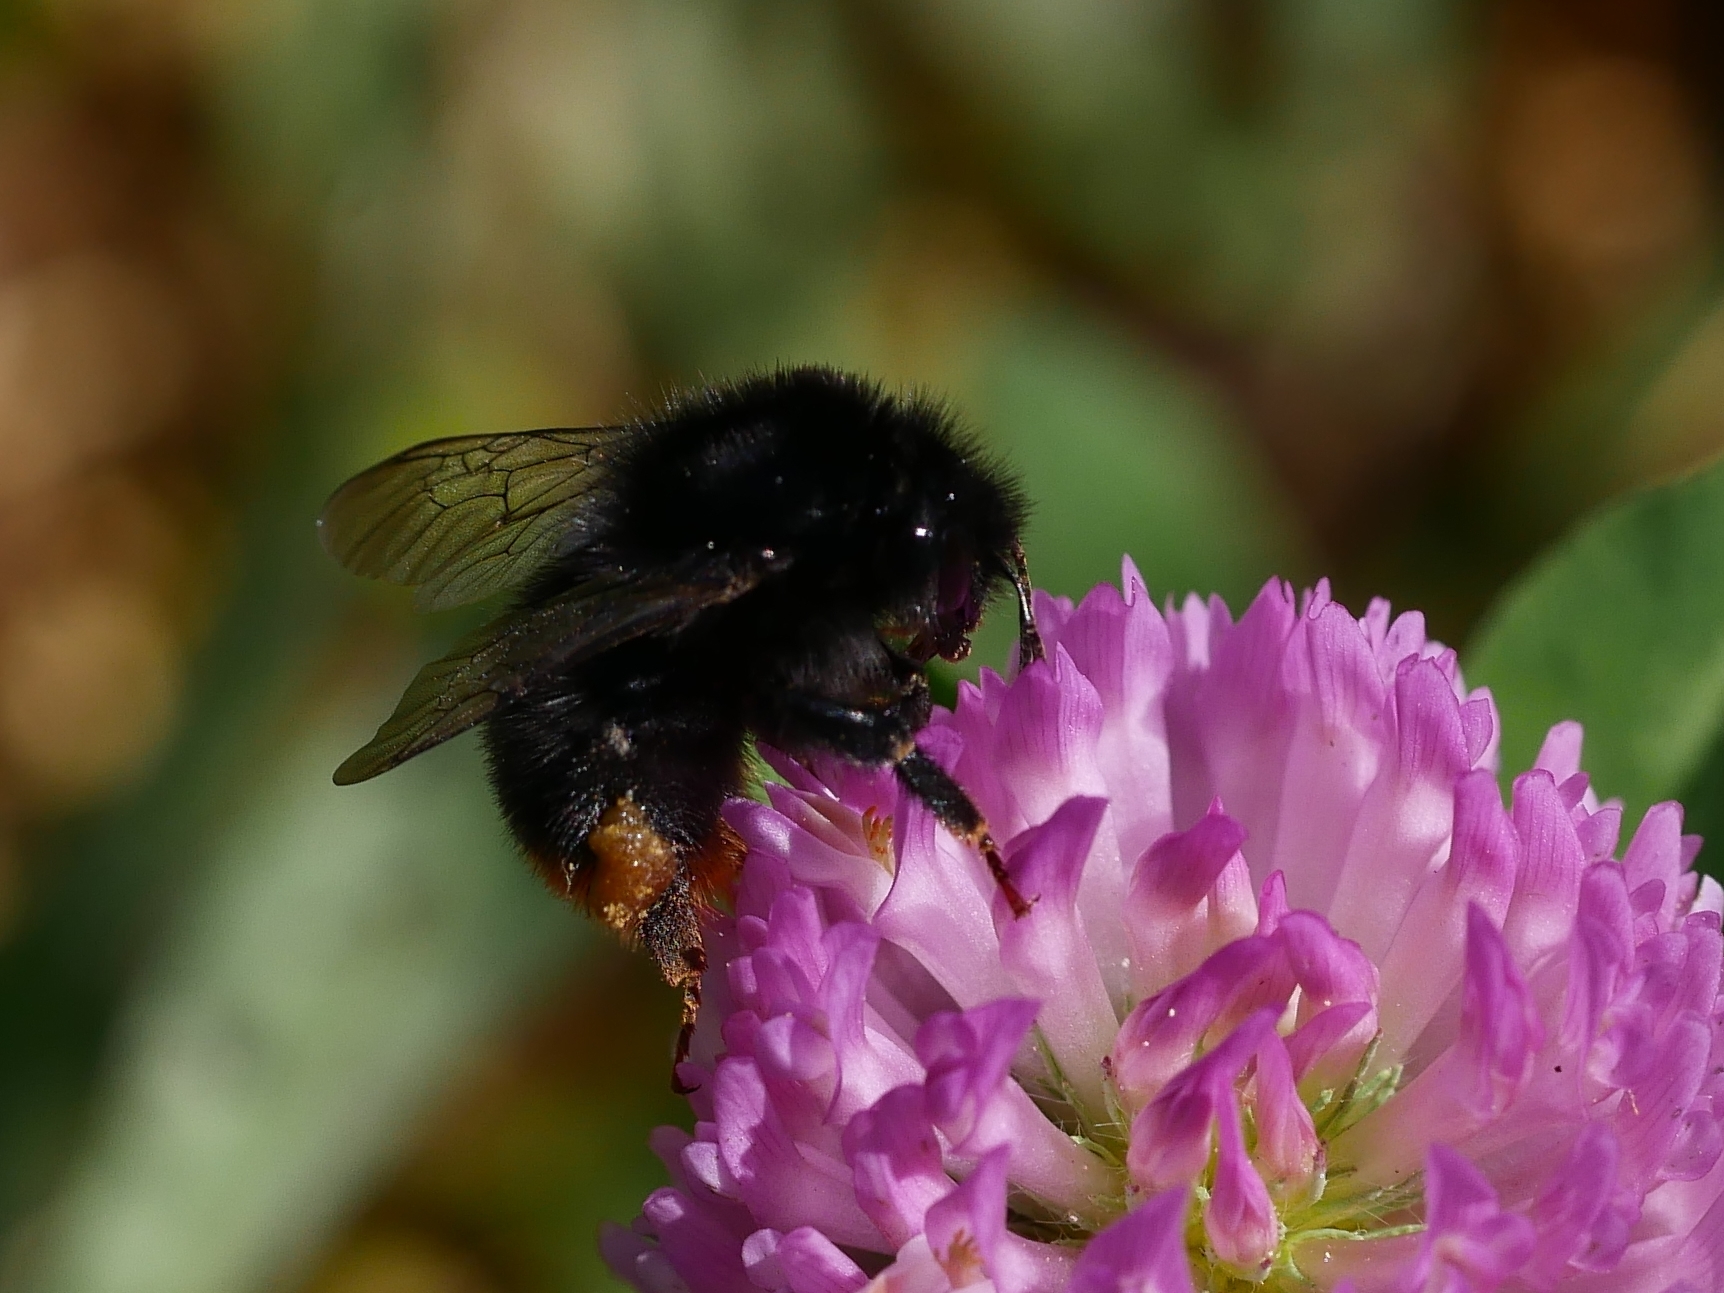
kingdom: Animalia
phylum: Arthropoda
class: Insecta
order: Hymenoptera
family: Apidae
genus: Bombus
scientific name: Bombus lapidarius
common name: Large red-tailed humble-bee
